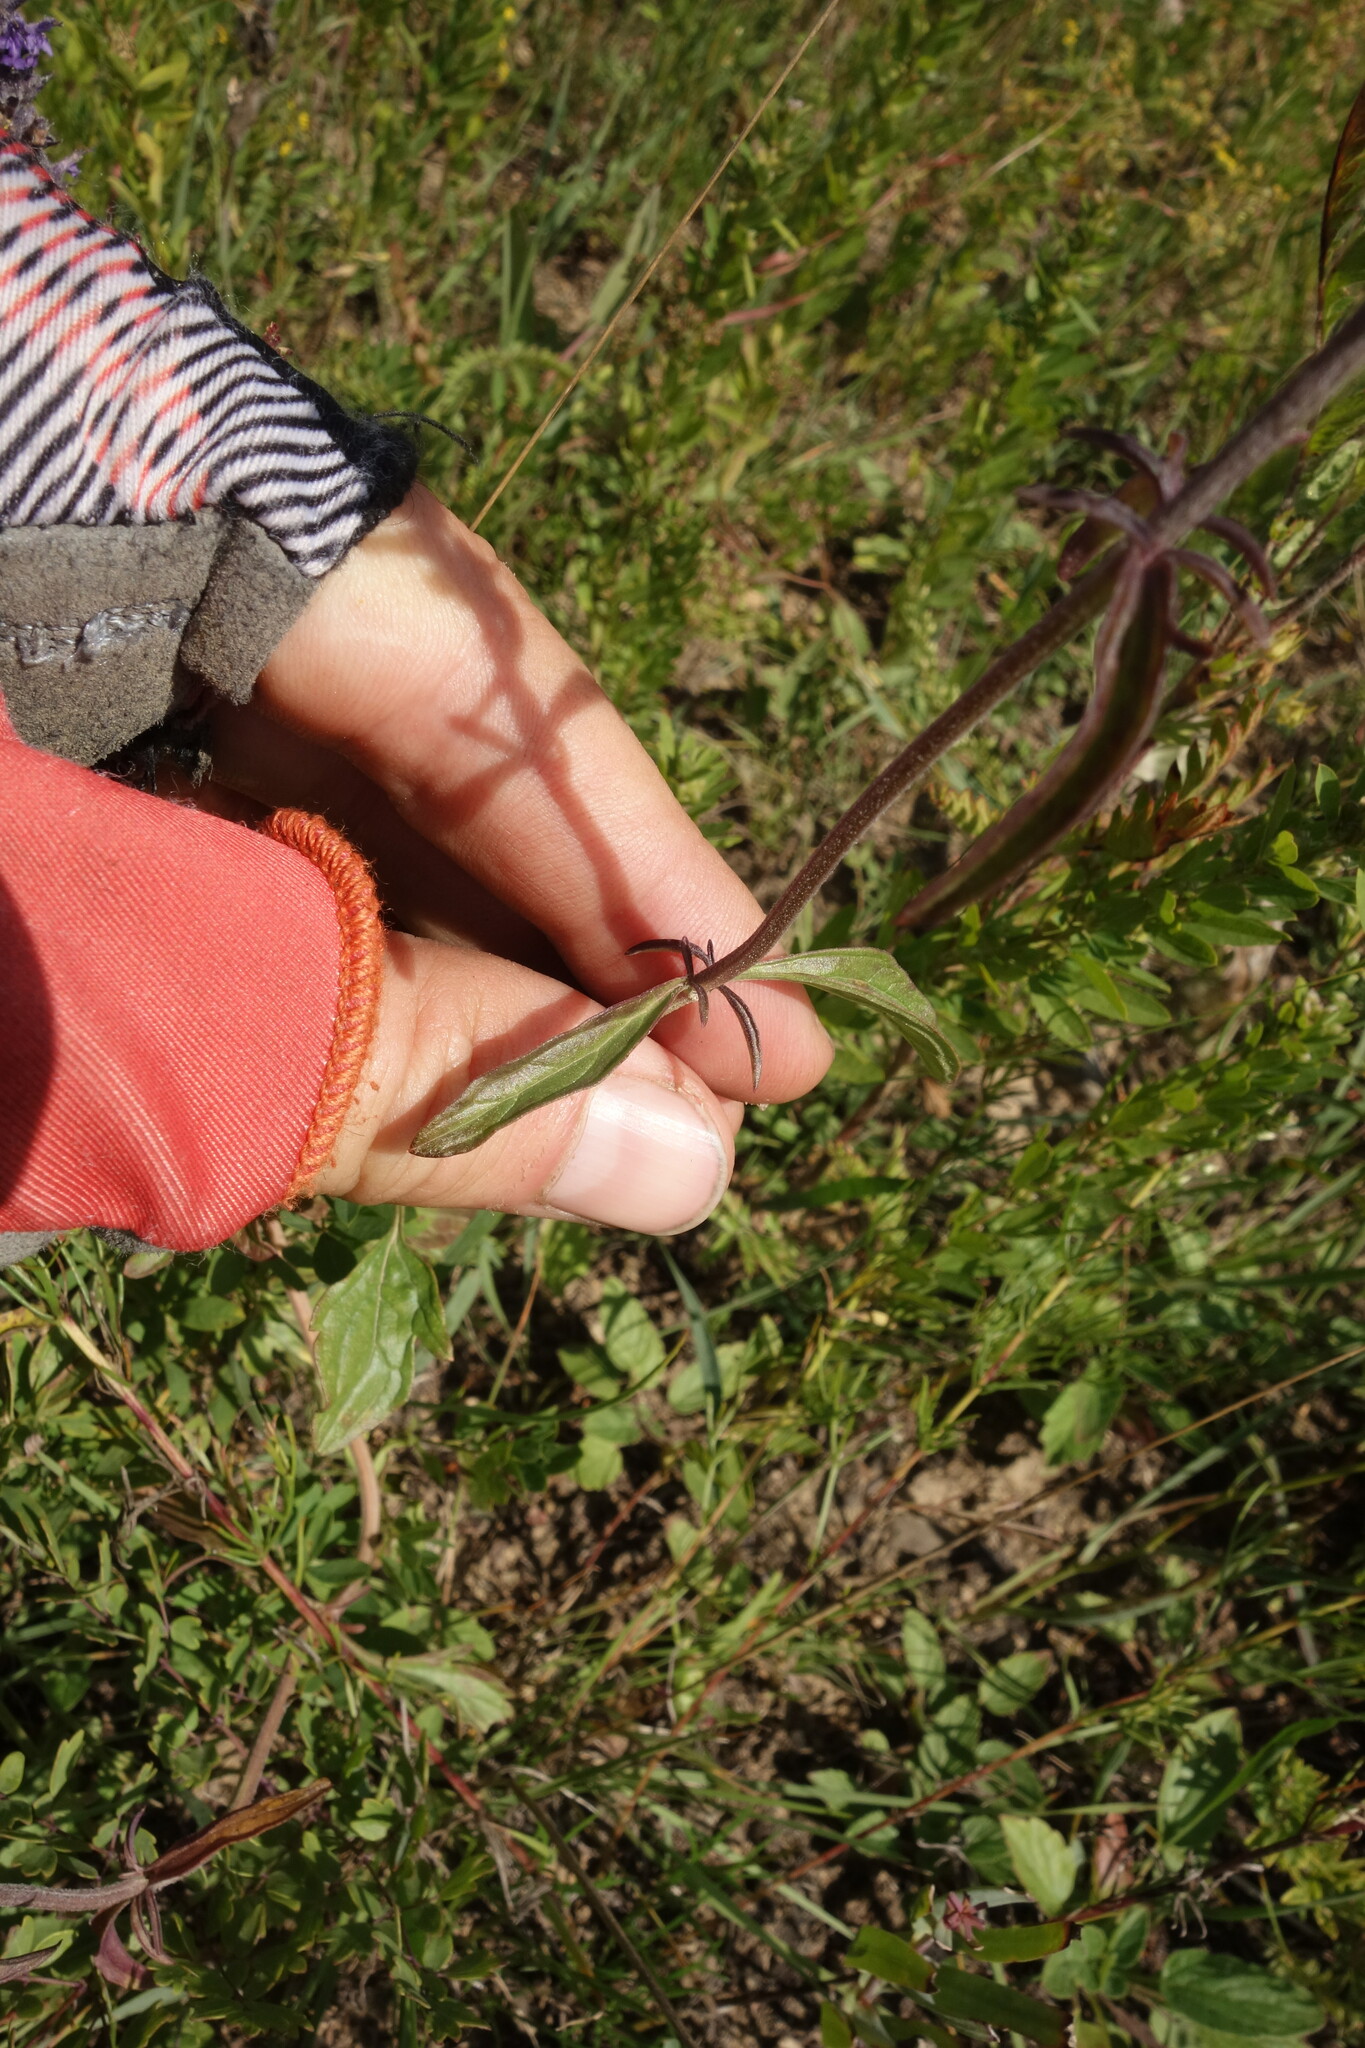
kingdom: Plantae
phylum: Tracheophyta
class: Magnoliopsida
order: Lamiales
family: Lamiaceae
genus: Nepeta
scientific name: Nepeta multifida
